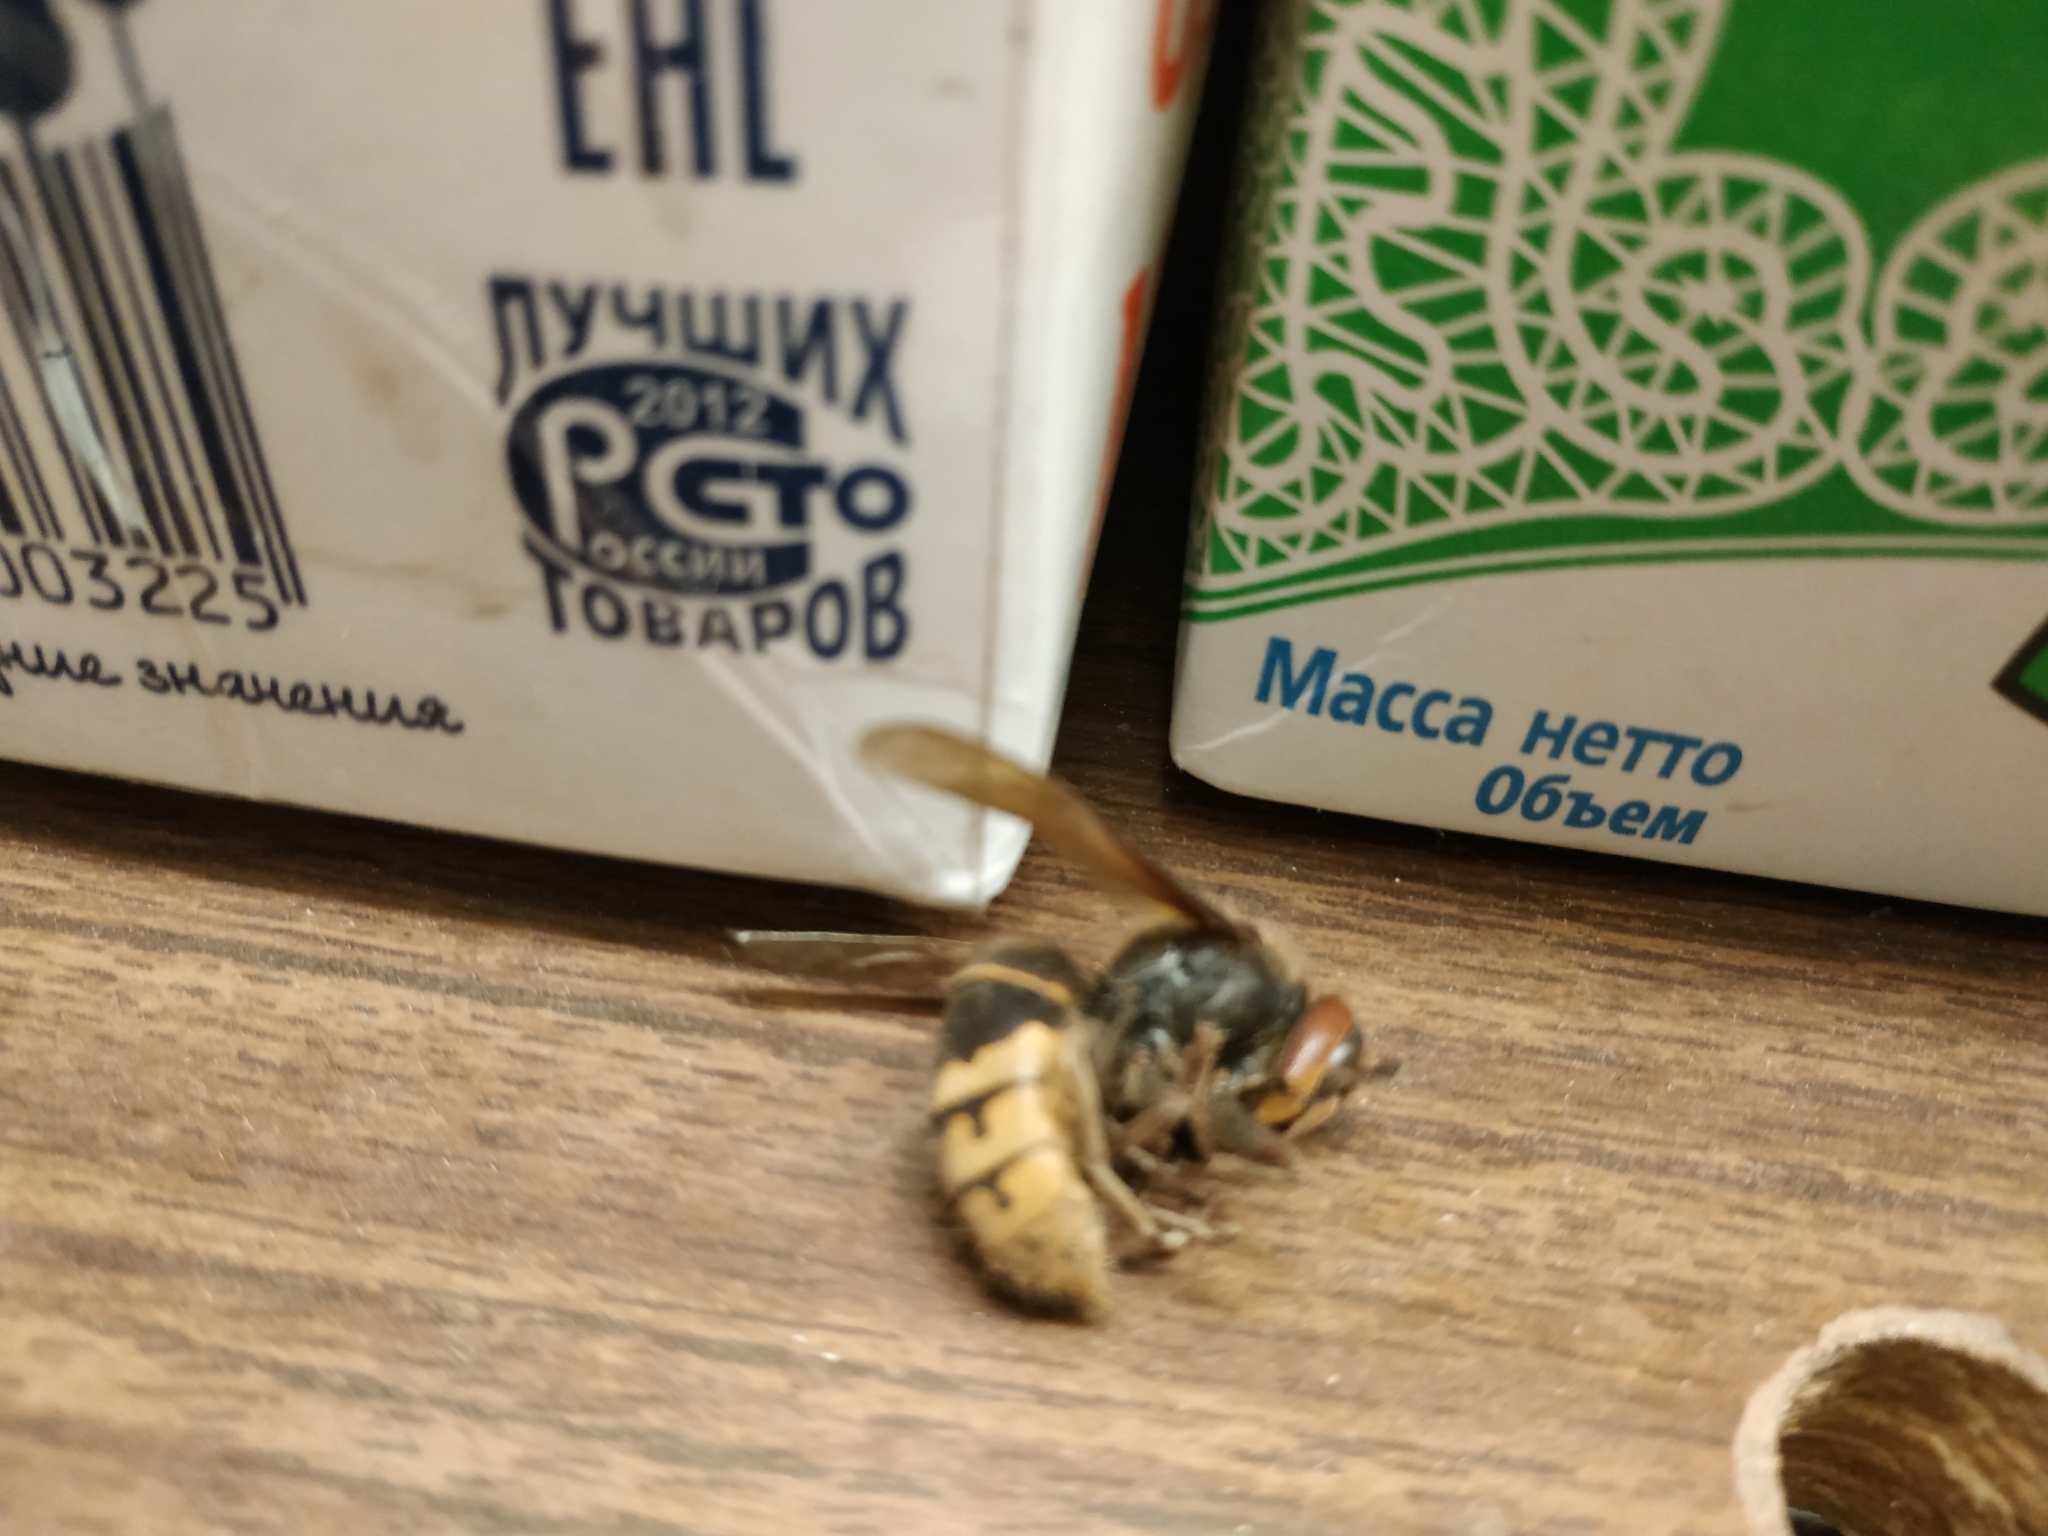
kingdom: Animalia
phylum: Arthropoda
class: Insecta
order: Hymenoptera
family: Vespidae
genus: Vespa
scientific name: Vespa crabro
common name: Hornet
